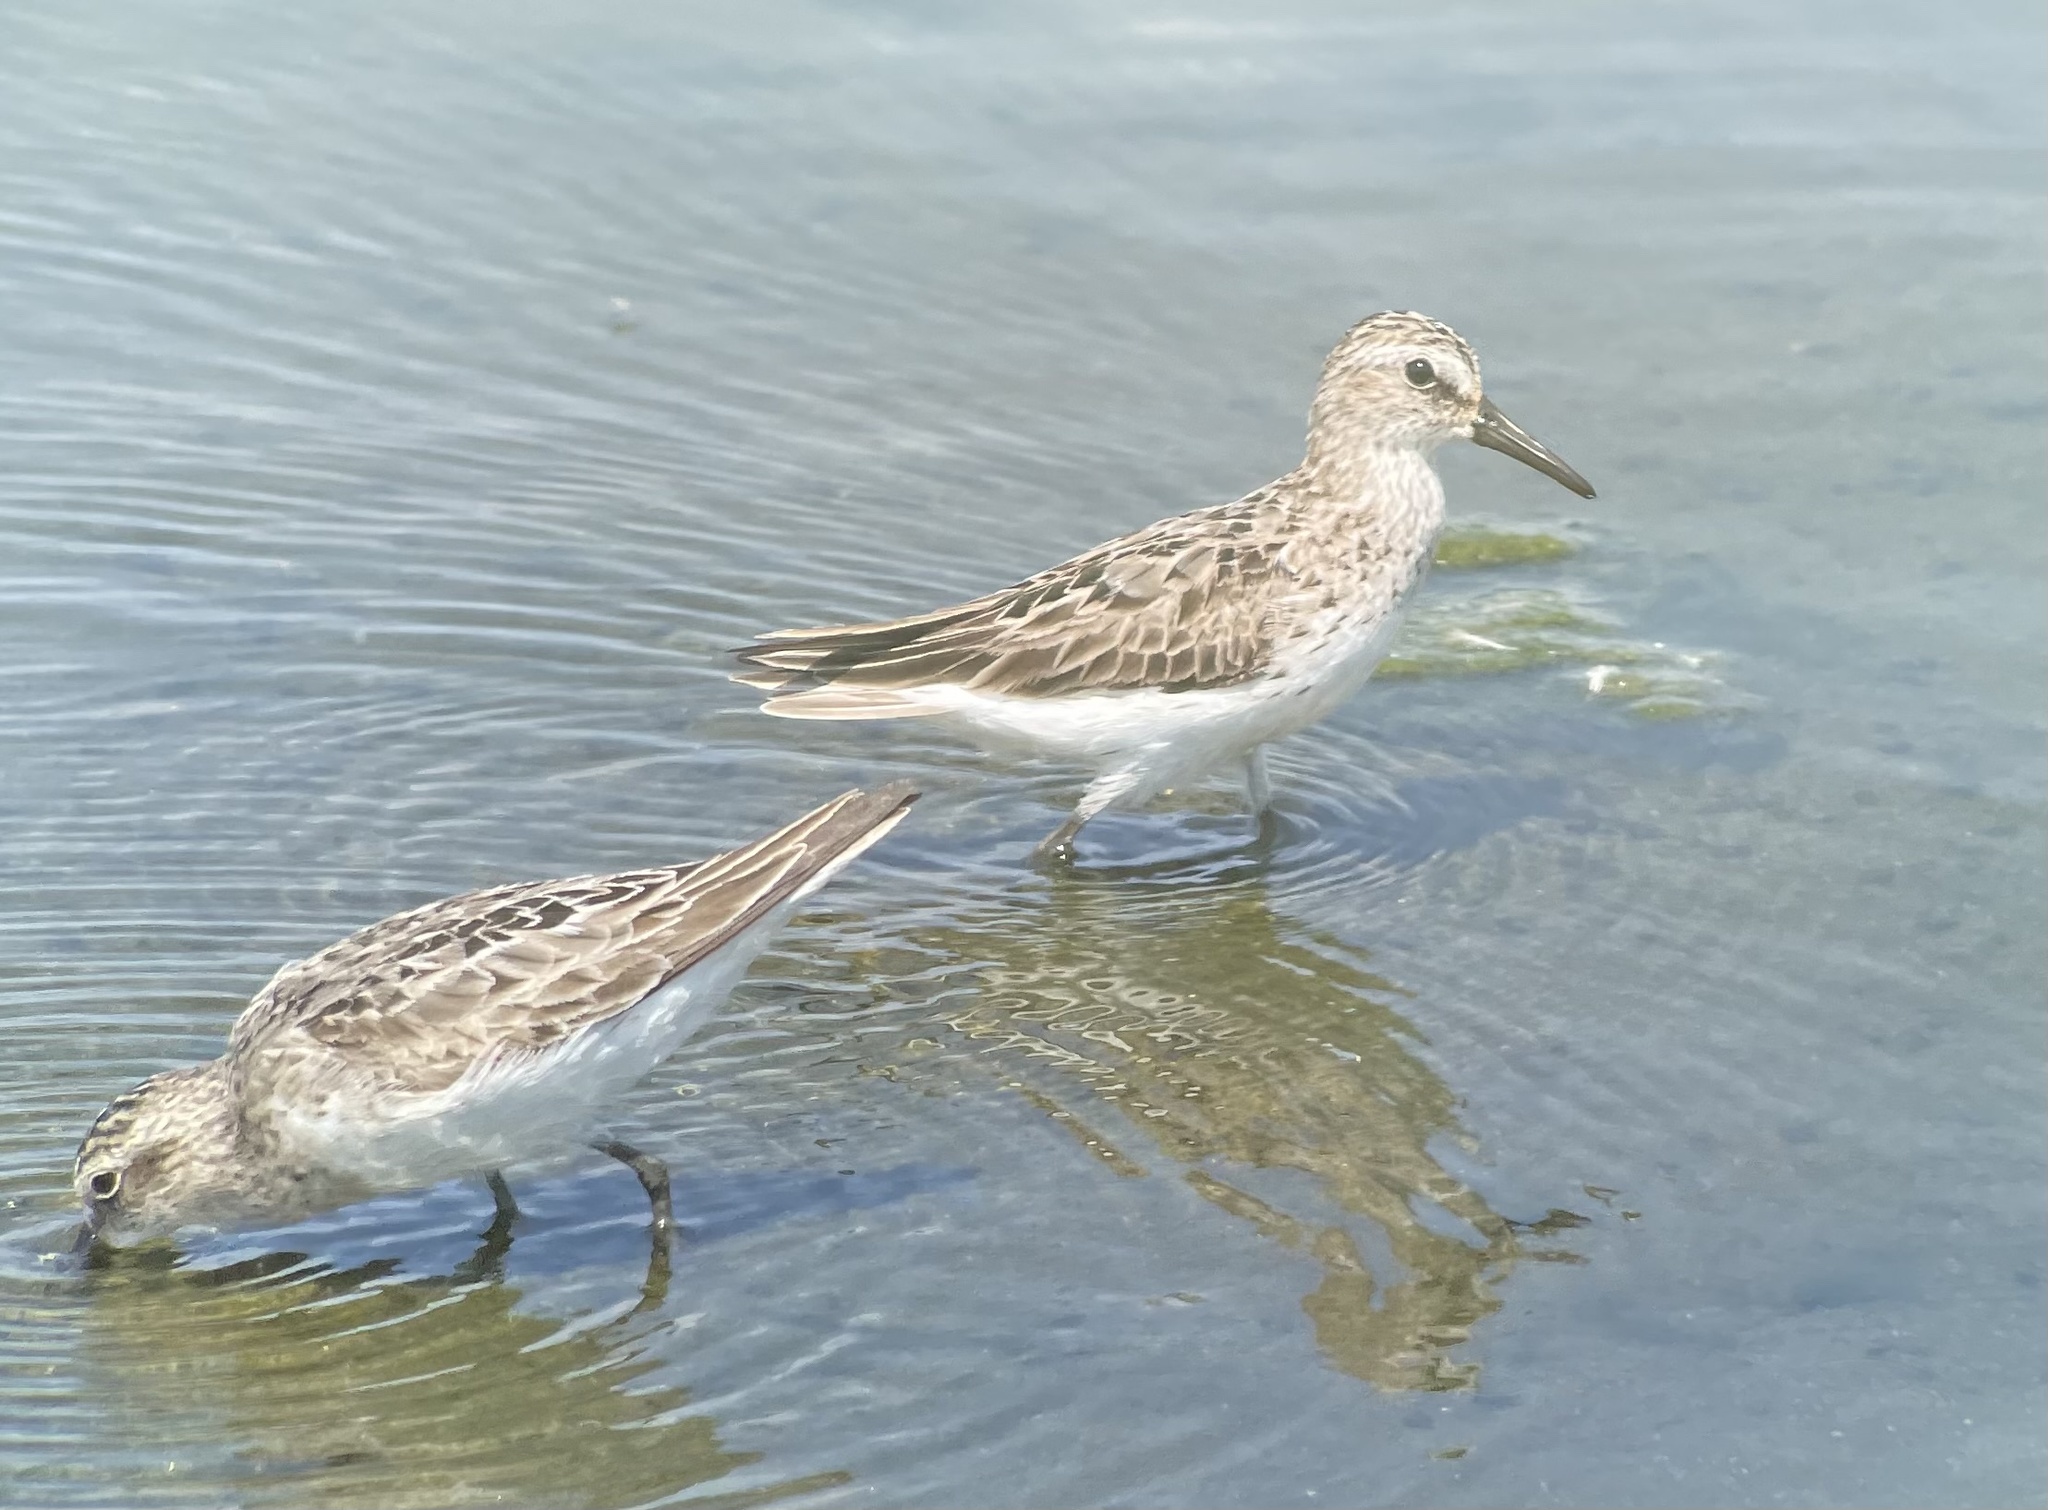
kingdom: Animalia
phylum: Chordata
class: Aves
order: Charadriiformes
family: Scolopacidae
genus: Calidris
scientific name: Calidris pusilla
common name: Semipalmated sandpiper
